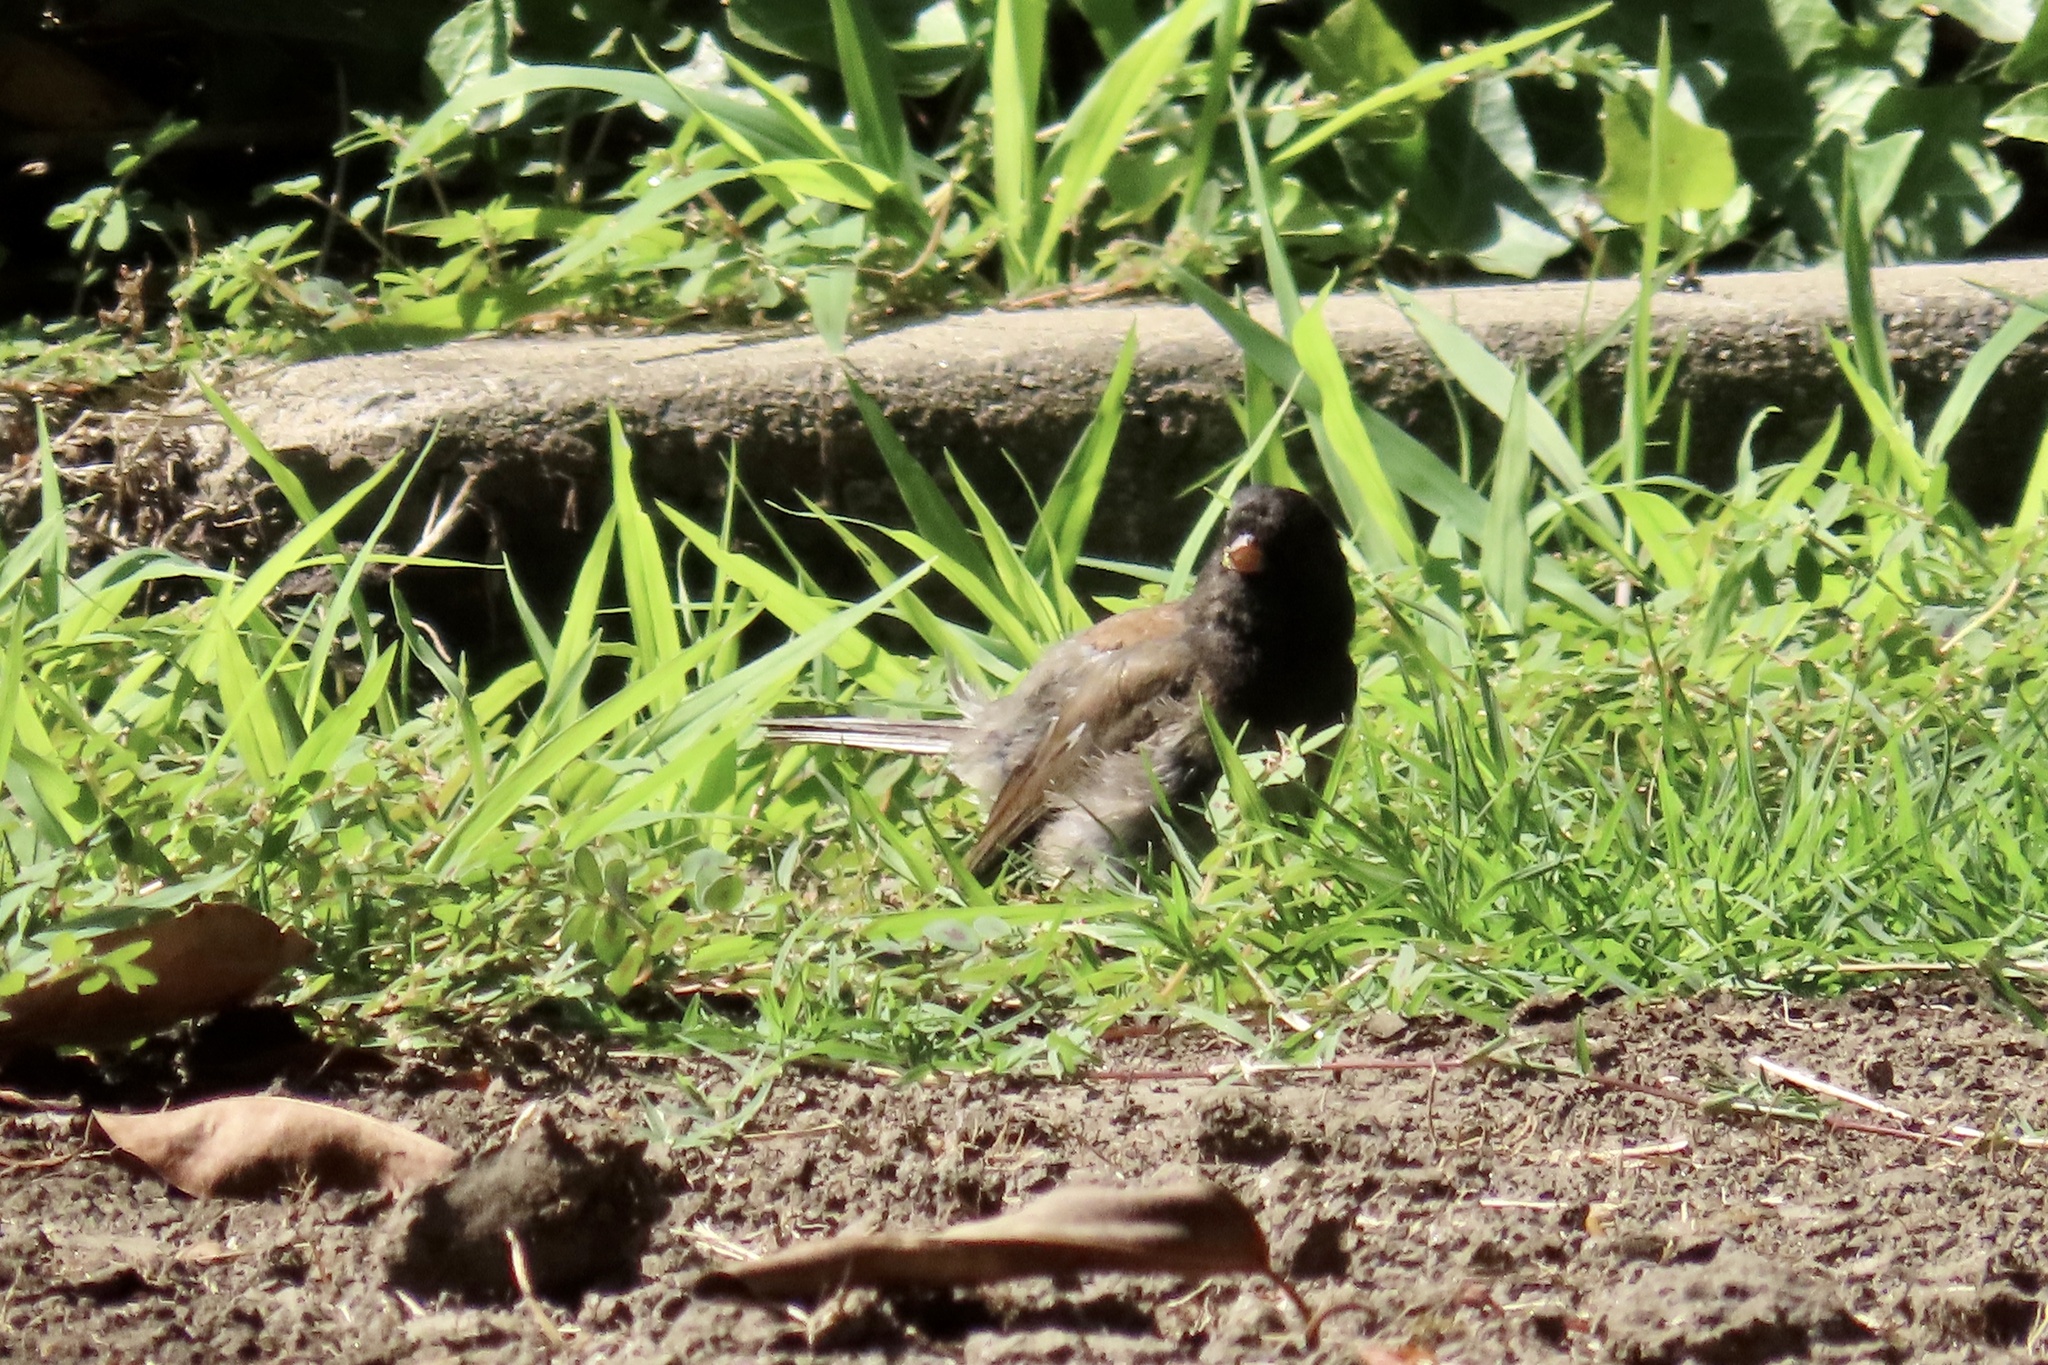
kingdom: Animalia
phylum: Chordata
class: Aves
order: Passeriformes
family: Passerellidae
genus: Junco
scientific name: Junco hyemalis
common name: Dark-eyed junco
